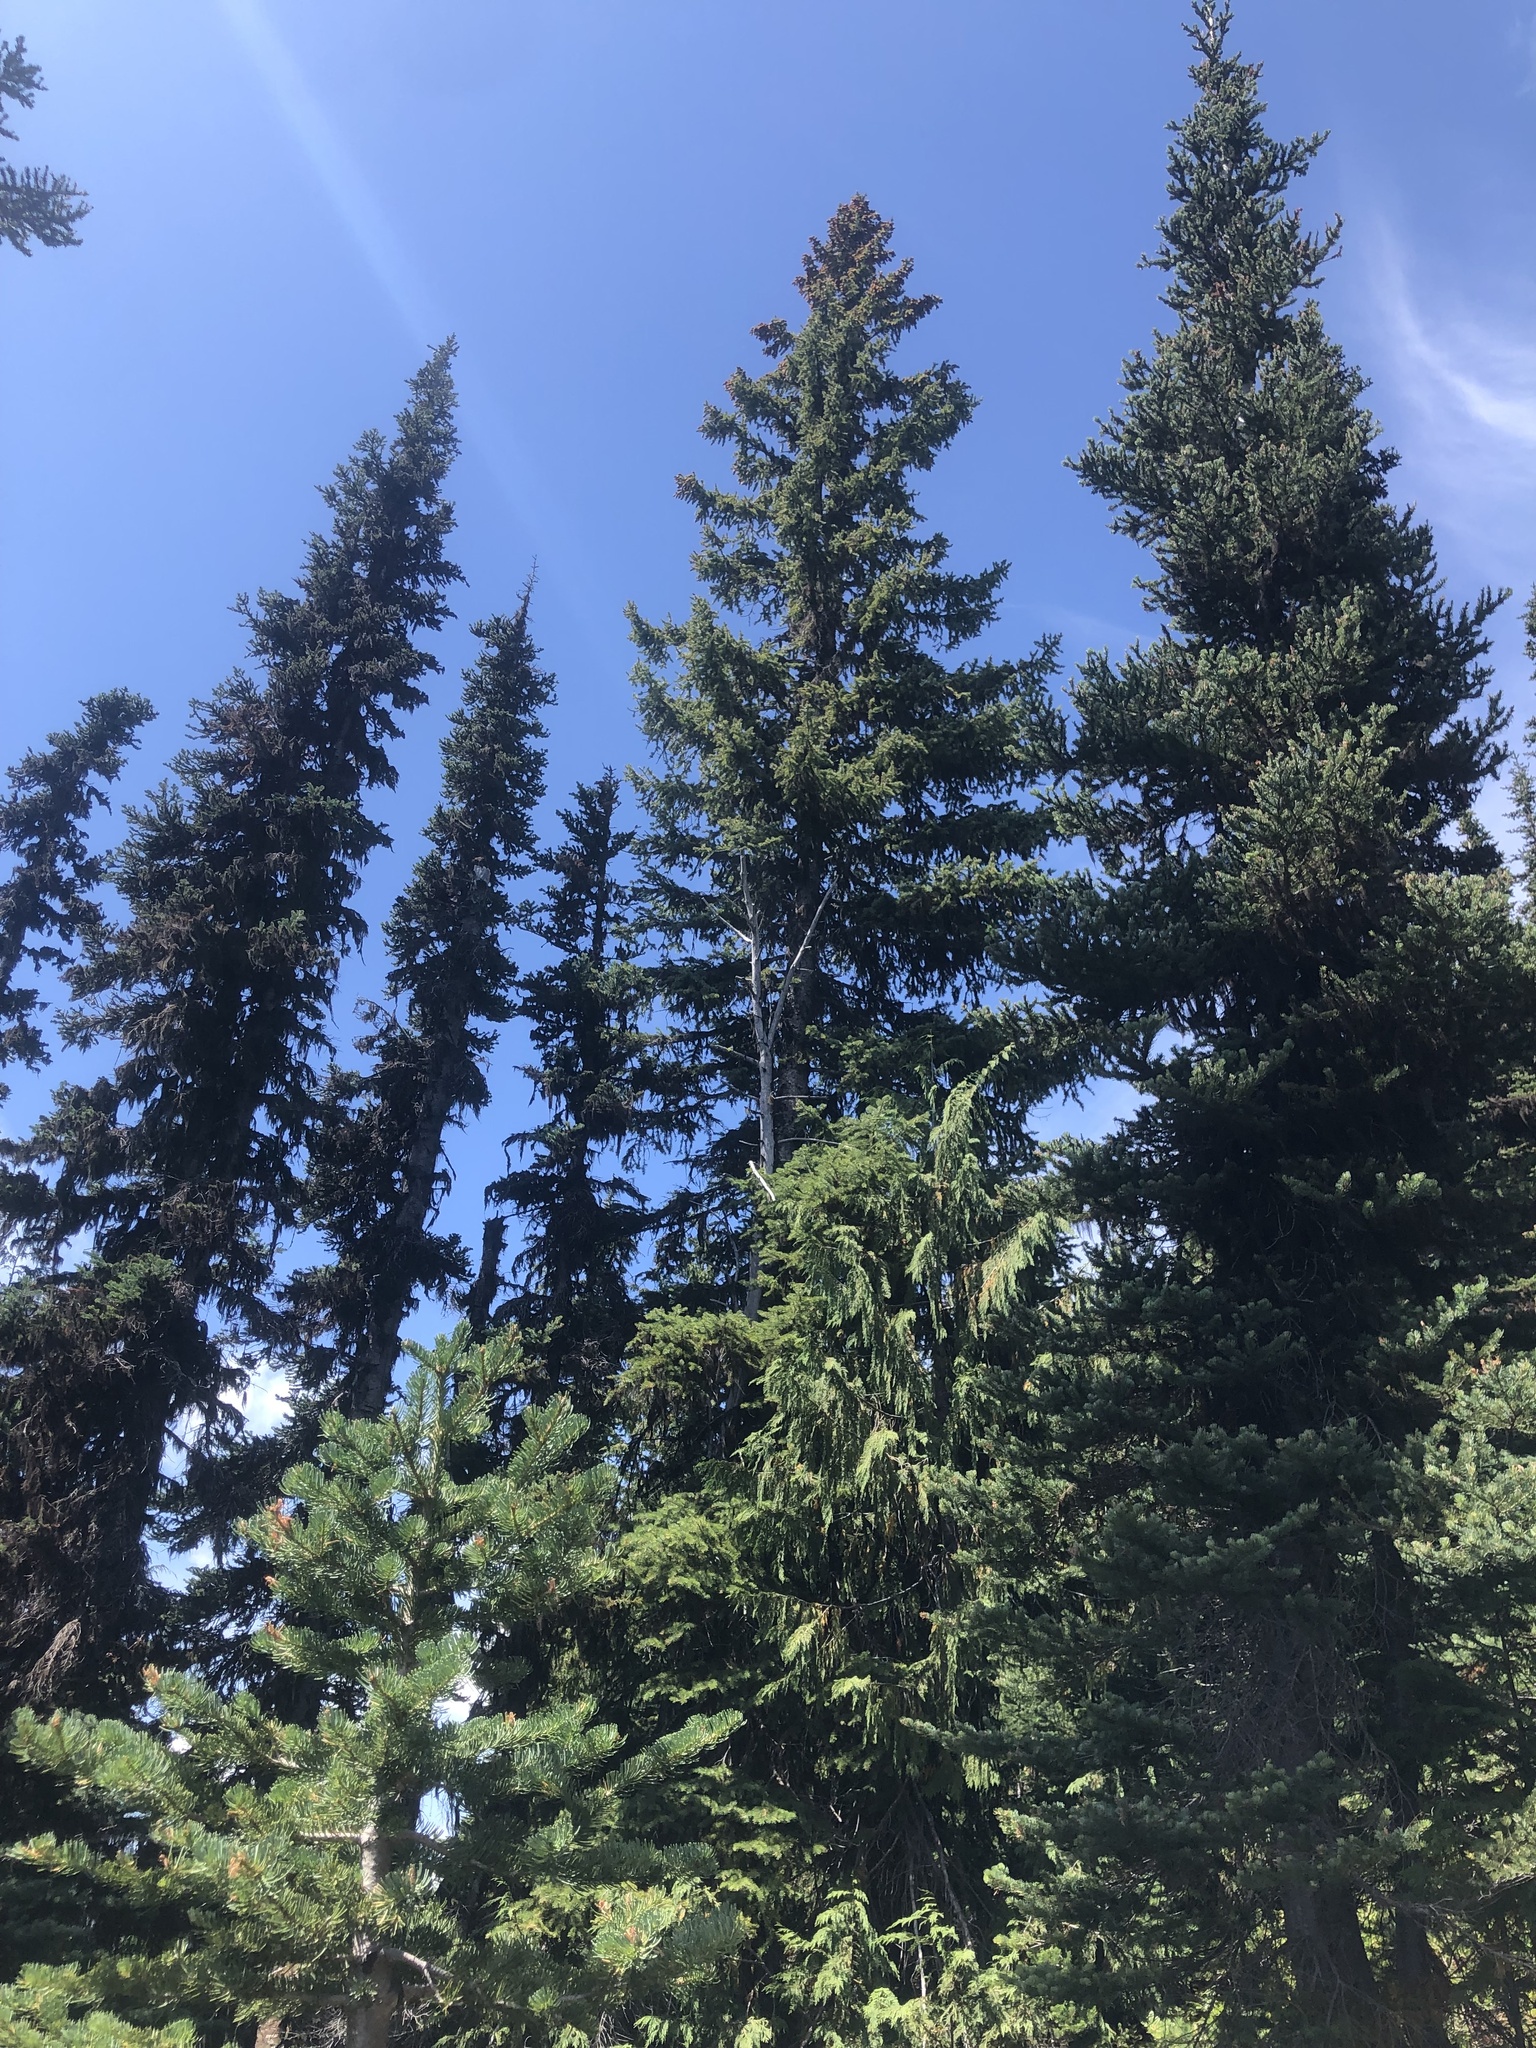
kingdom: Plantae
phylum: Tracheophyta
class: Pinopsida
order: Pinales
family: Pinaceae
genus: Picea
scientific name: Picea engelmannii
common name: Engelmann spruce
